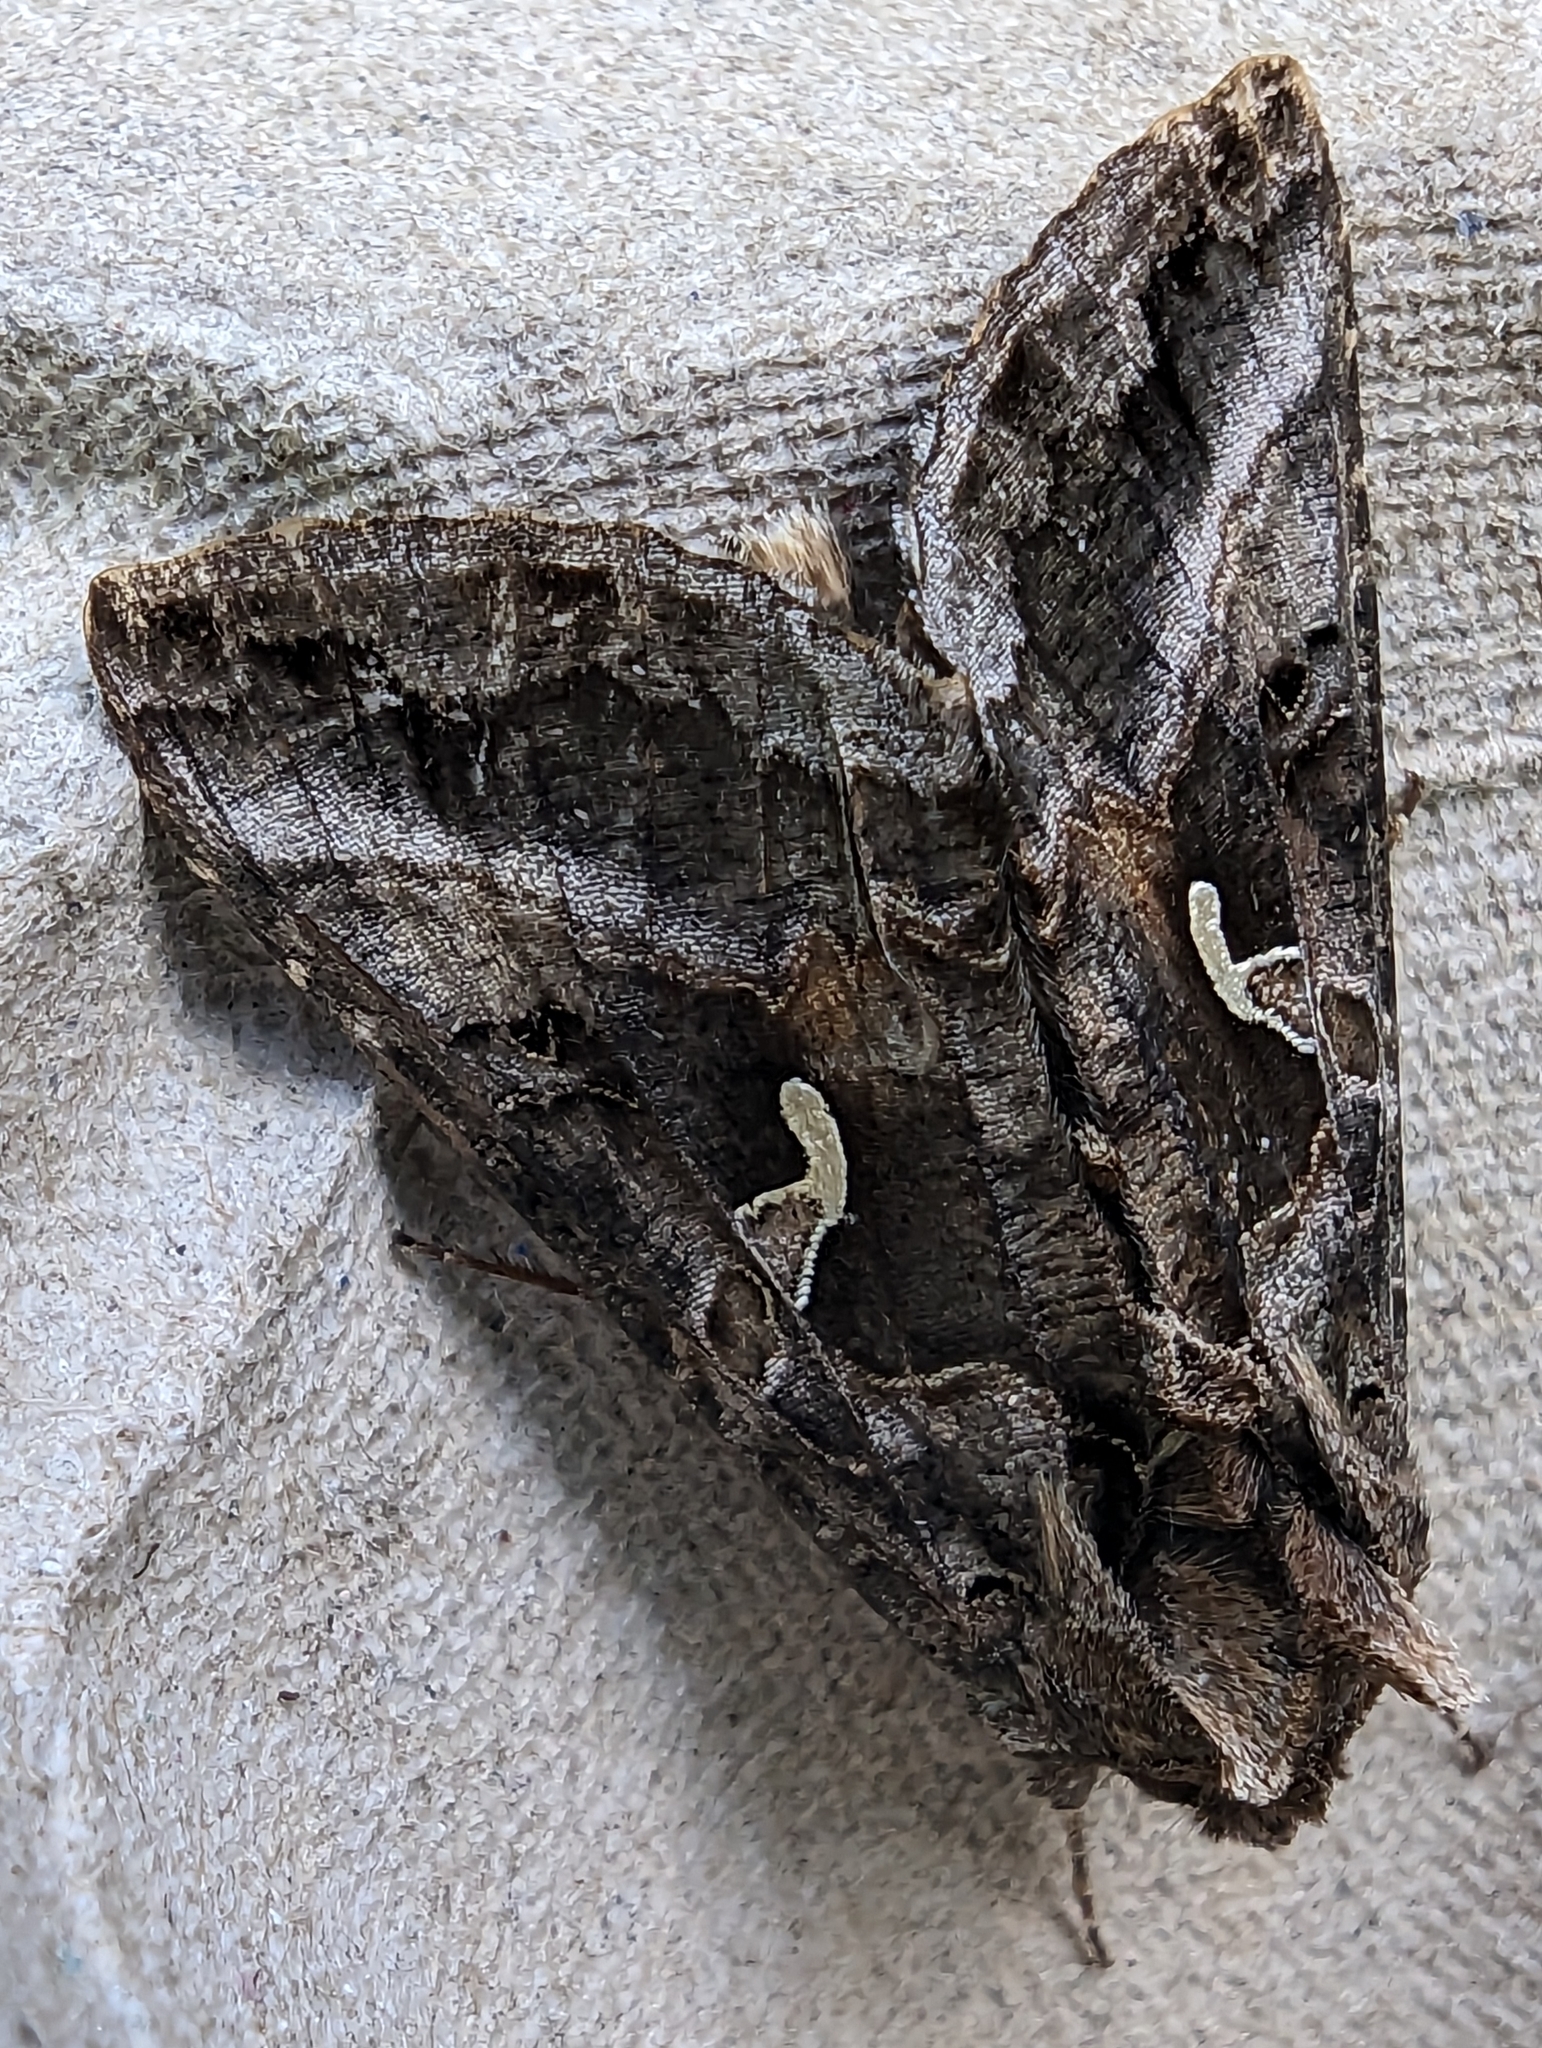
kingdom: Animalia
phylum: Arthropoda
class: Insecta
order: Lepidoptera
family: Noctuidae
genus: Autographa
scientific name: Autographa gamma
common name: Silver y
